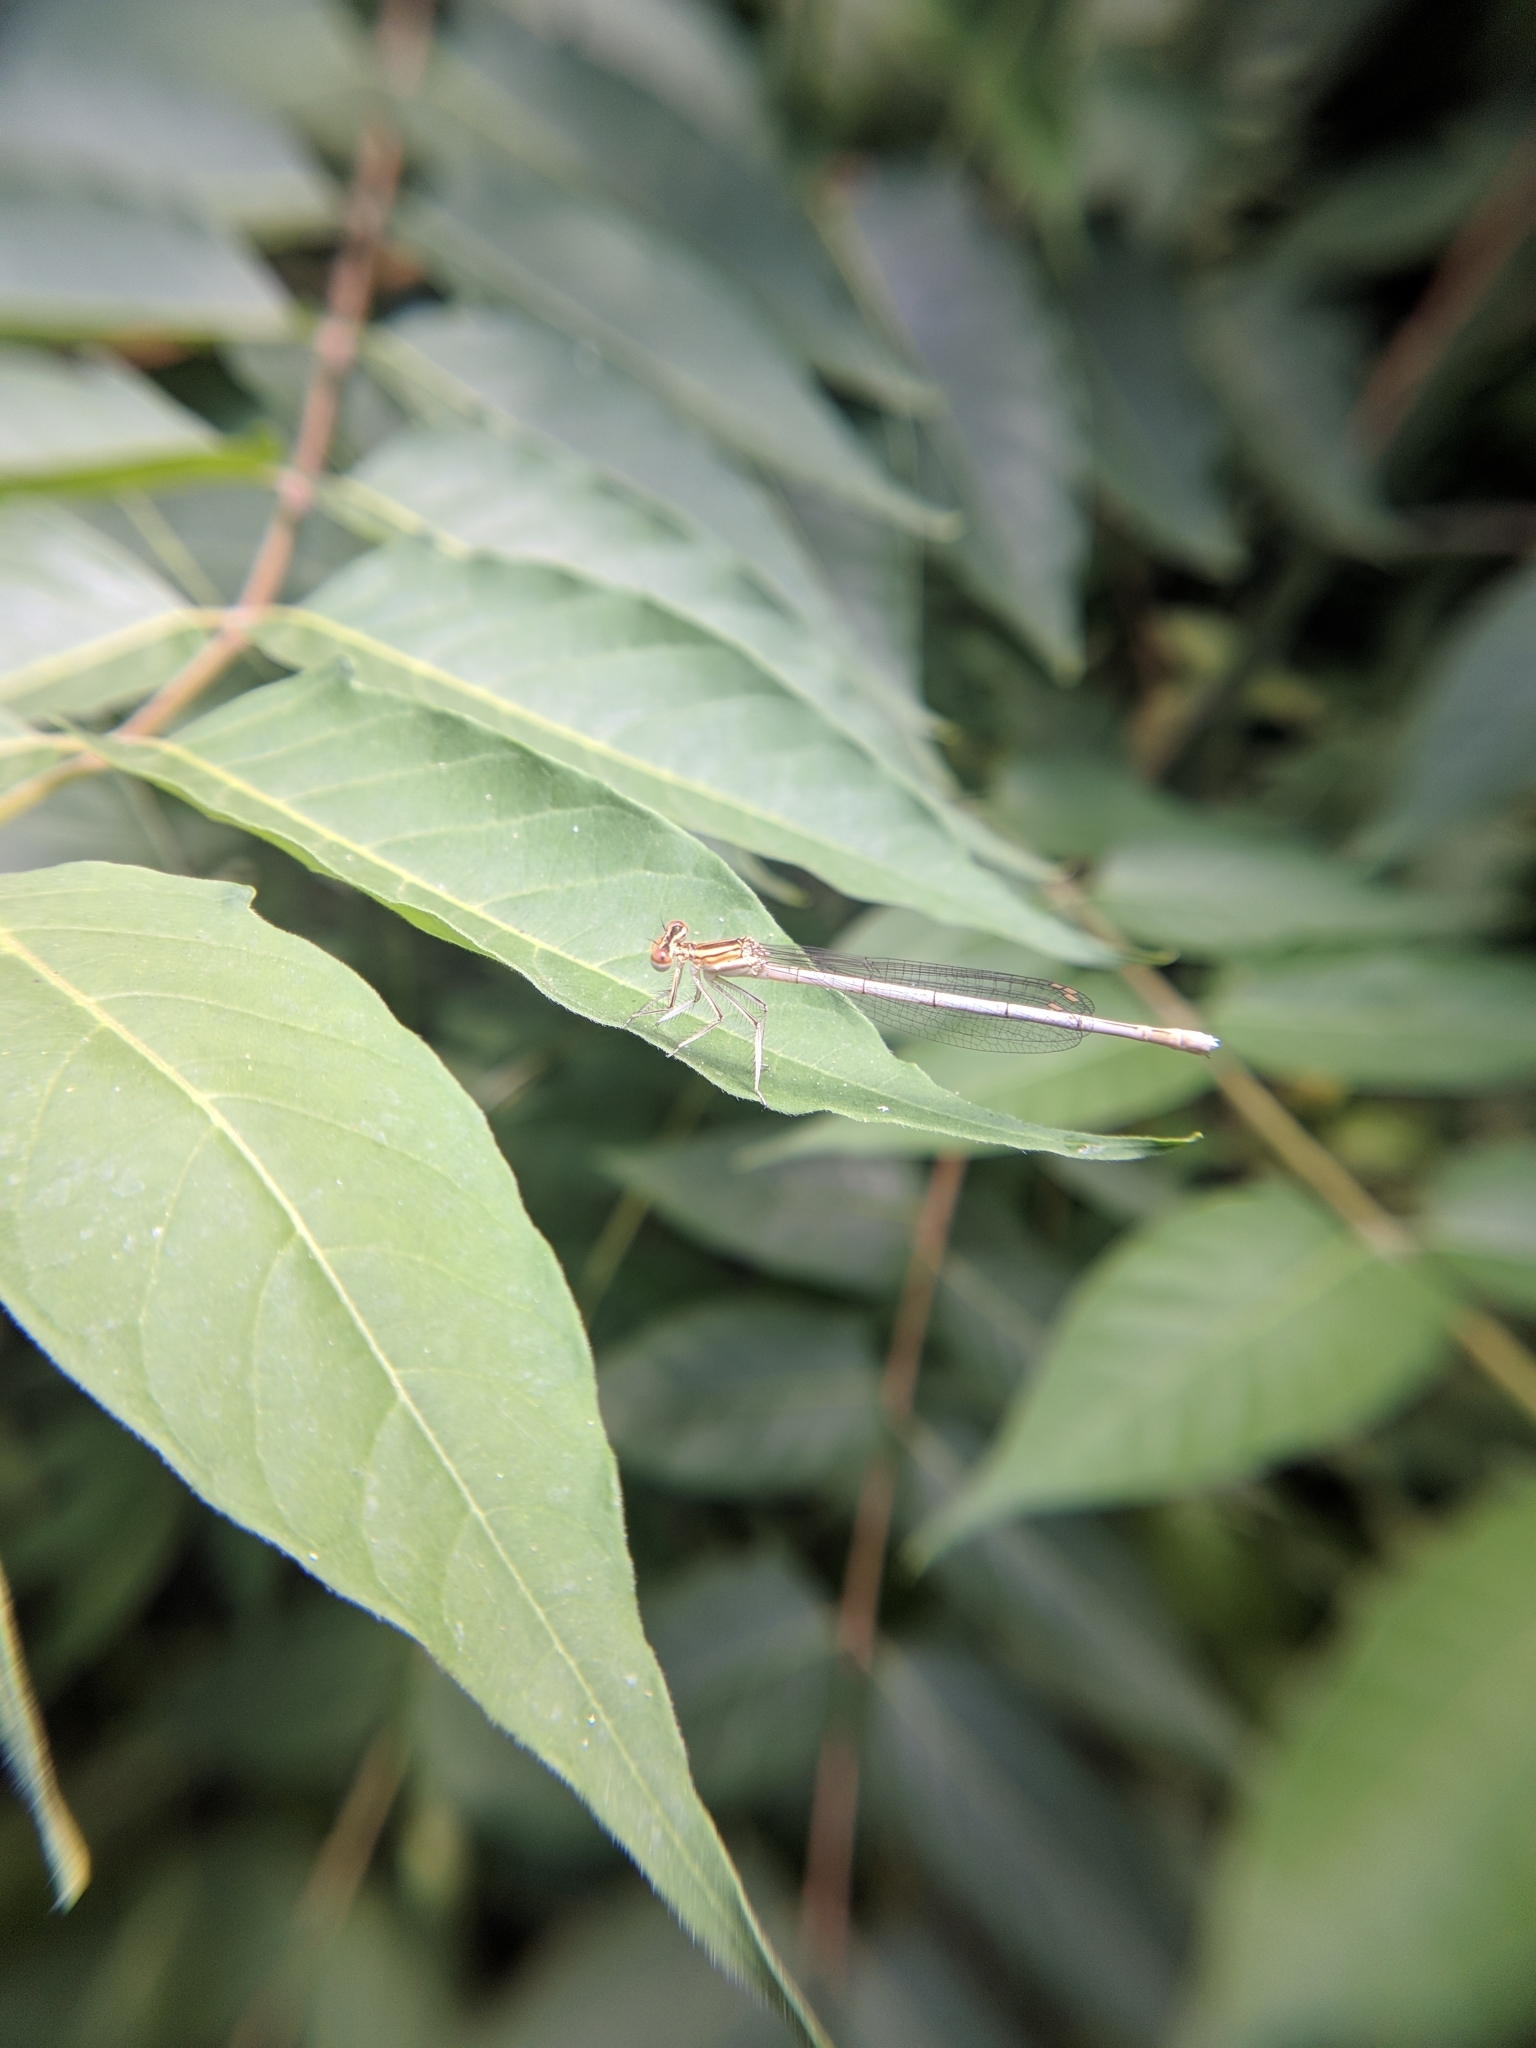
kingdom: Animalia
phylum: Arthropoda
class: Insecta
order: Odonata
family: Platycnemididae
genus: Platycnemis
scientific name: Platycnemis pennipes
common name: White-legged damselfly
